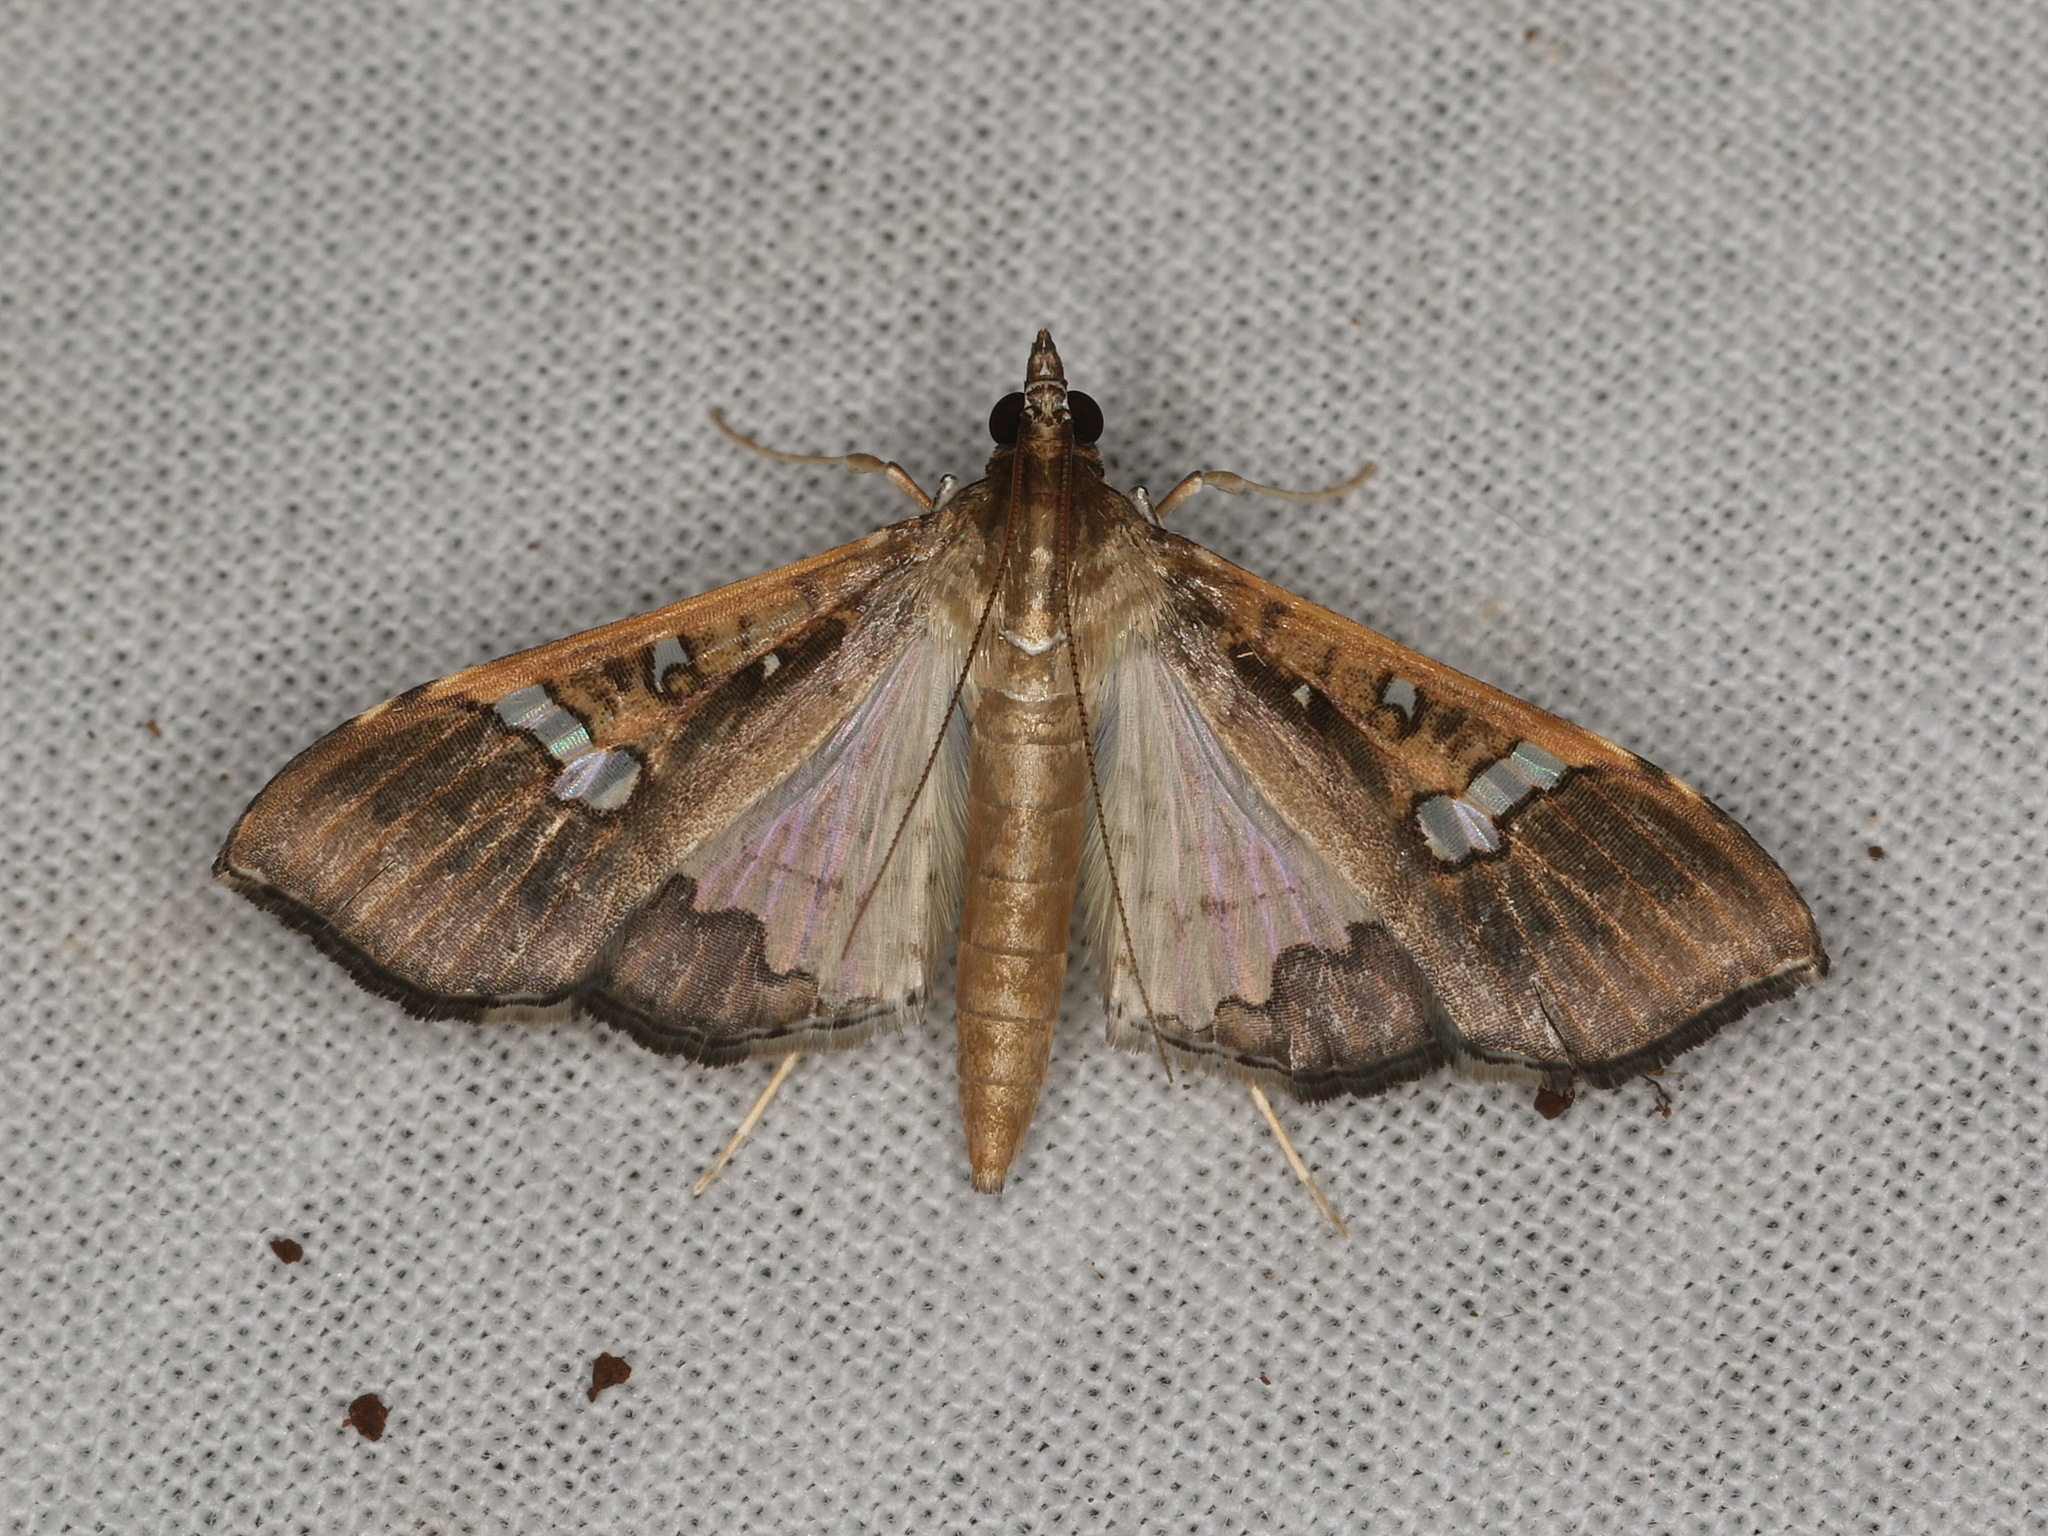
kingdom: Animalia
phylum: Arthropoda
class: Insecta
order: Lepidoptera
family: Crambidae
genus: Maruca
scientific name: Maruca vitrata
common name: Maruca pod borer
